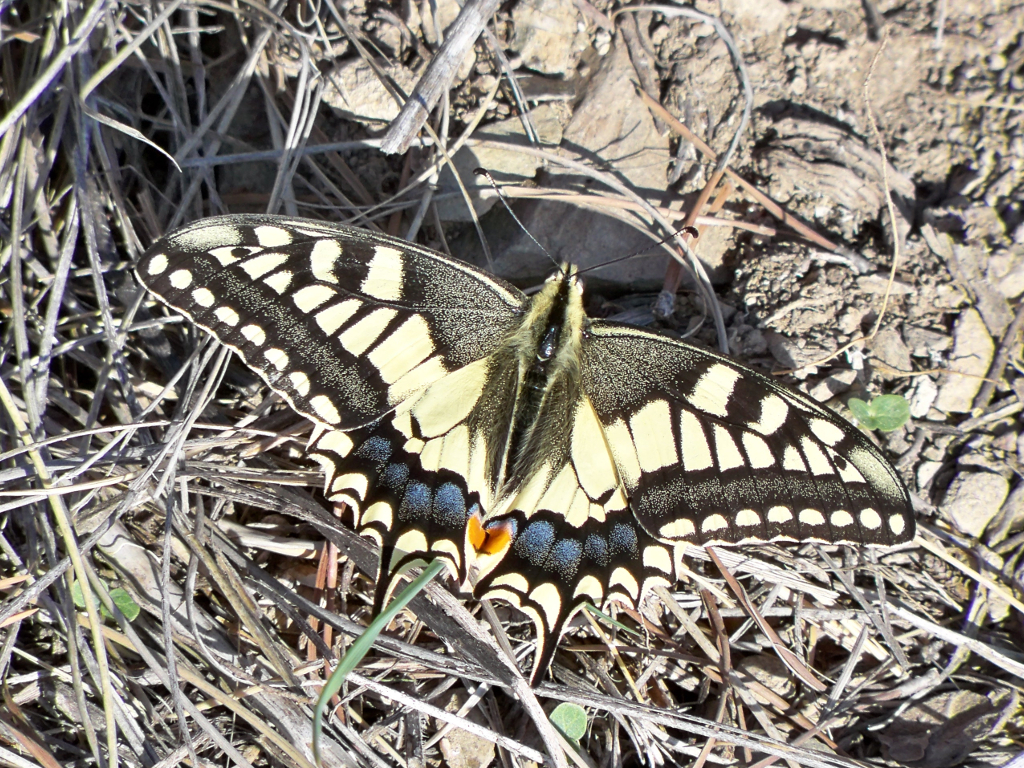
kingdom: Animalia
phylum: Arthropoda
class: Insecta
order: Lepidoptera
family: Papilionidae
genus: Papilio
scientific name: Papilio machaon
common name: Swallowtail
